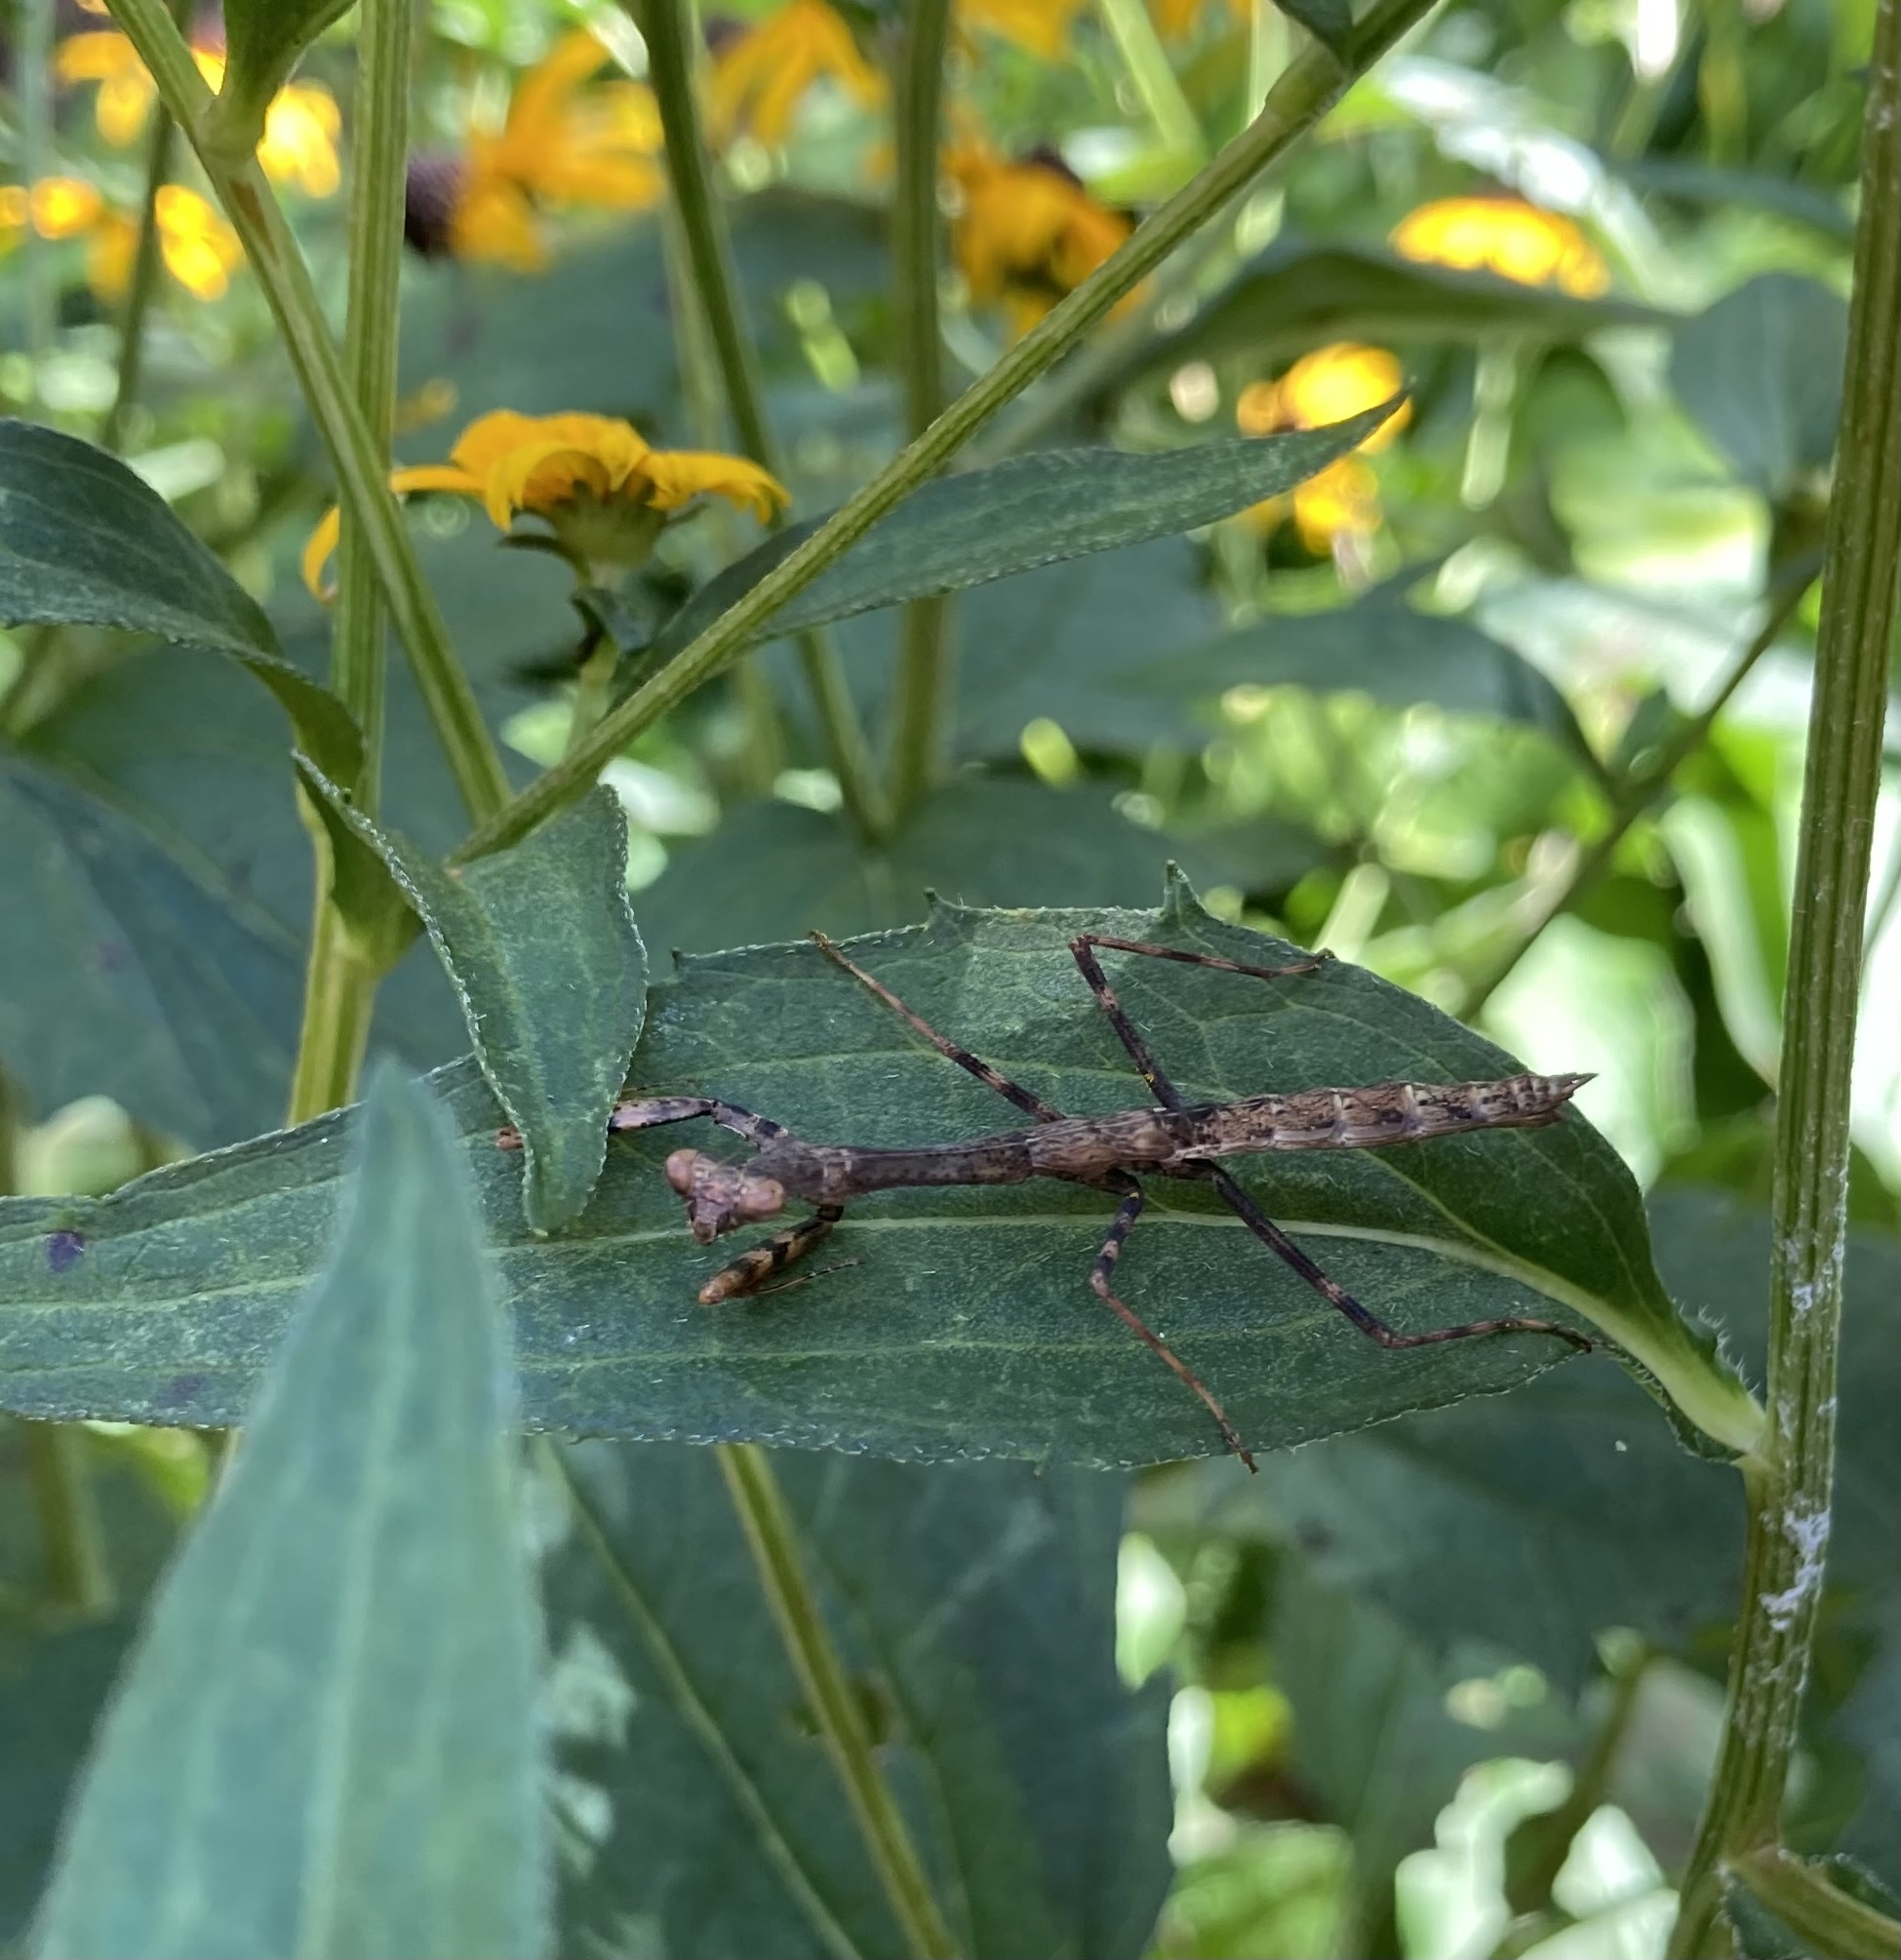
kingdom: Animalia
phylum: Arthropoda
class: Insecta
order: Mantodea
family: Mantidae
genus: Stagmomantis
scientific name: Stagmomantis carolina
